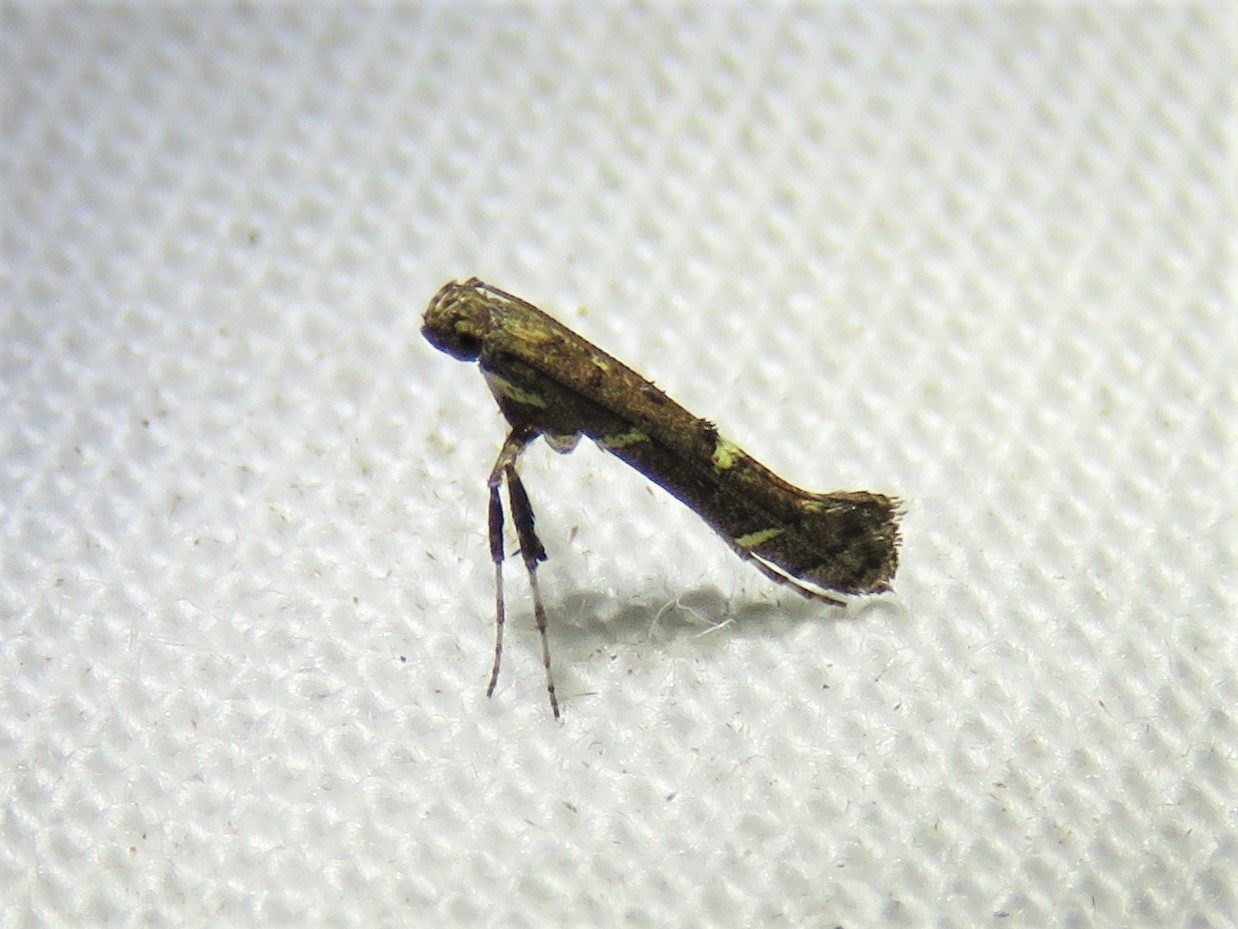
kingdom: Animalia
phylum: Arthropoda
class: Insecta
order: Lepidoptera
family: Gracillariidae
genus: Caloptilia
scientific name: Caloptilia triadicae
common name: Tallow leaf roller
